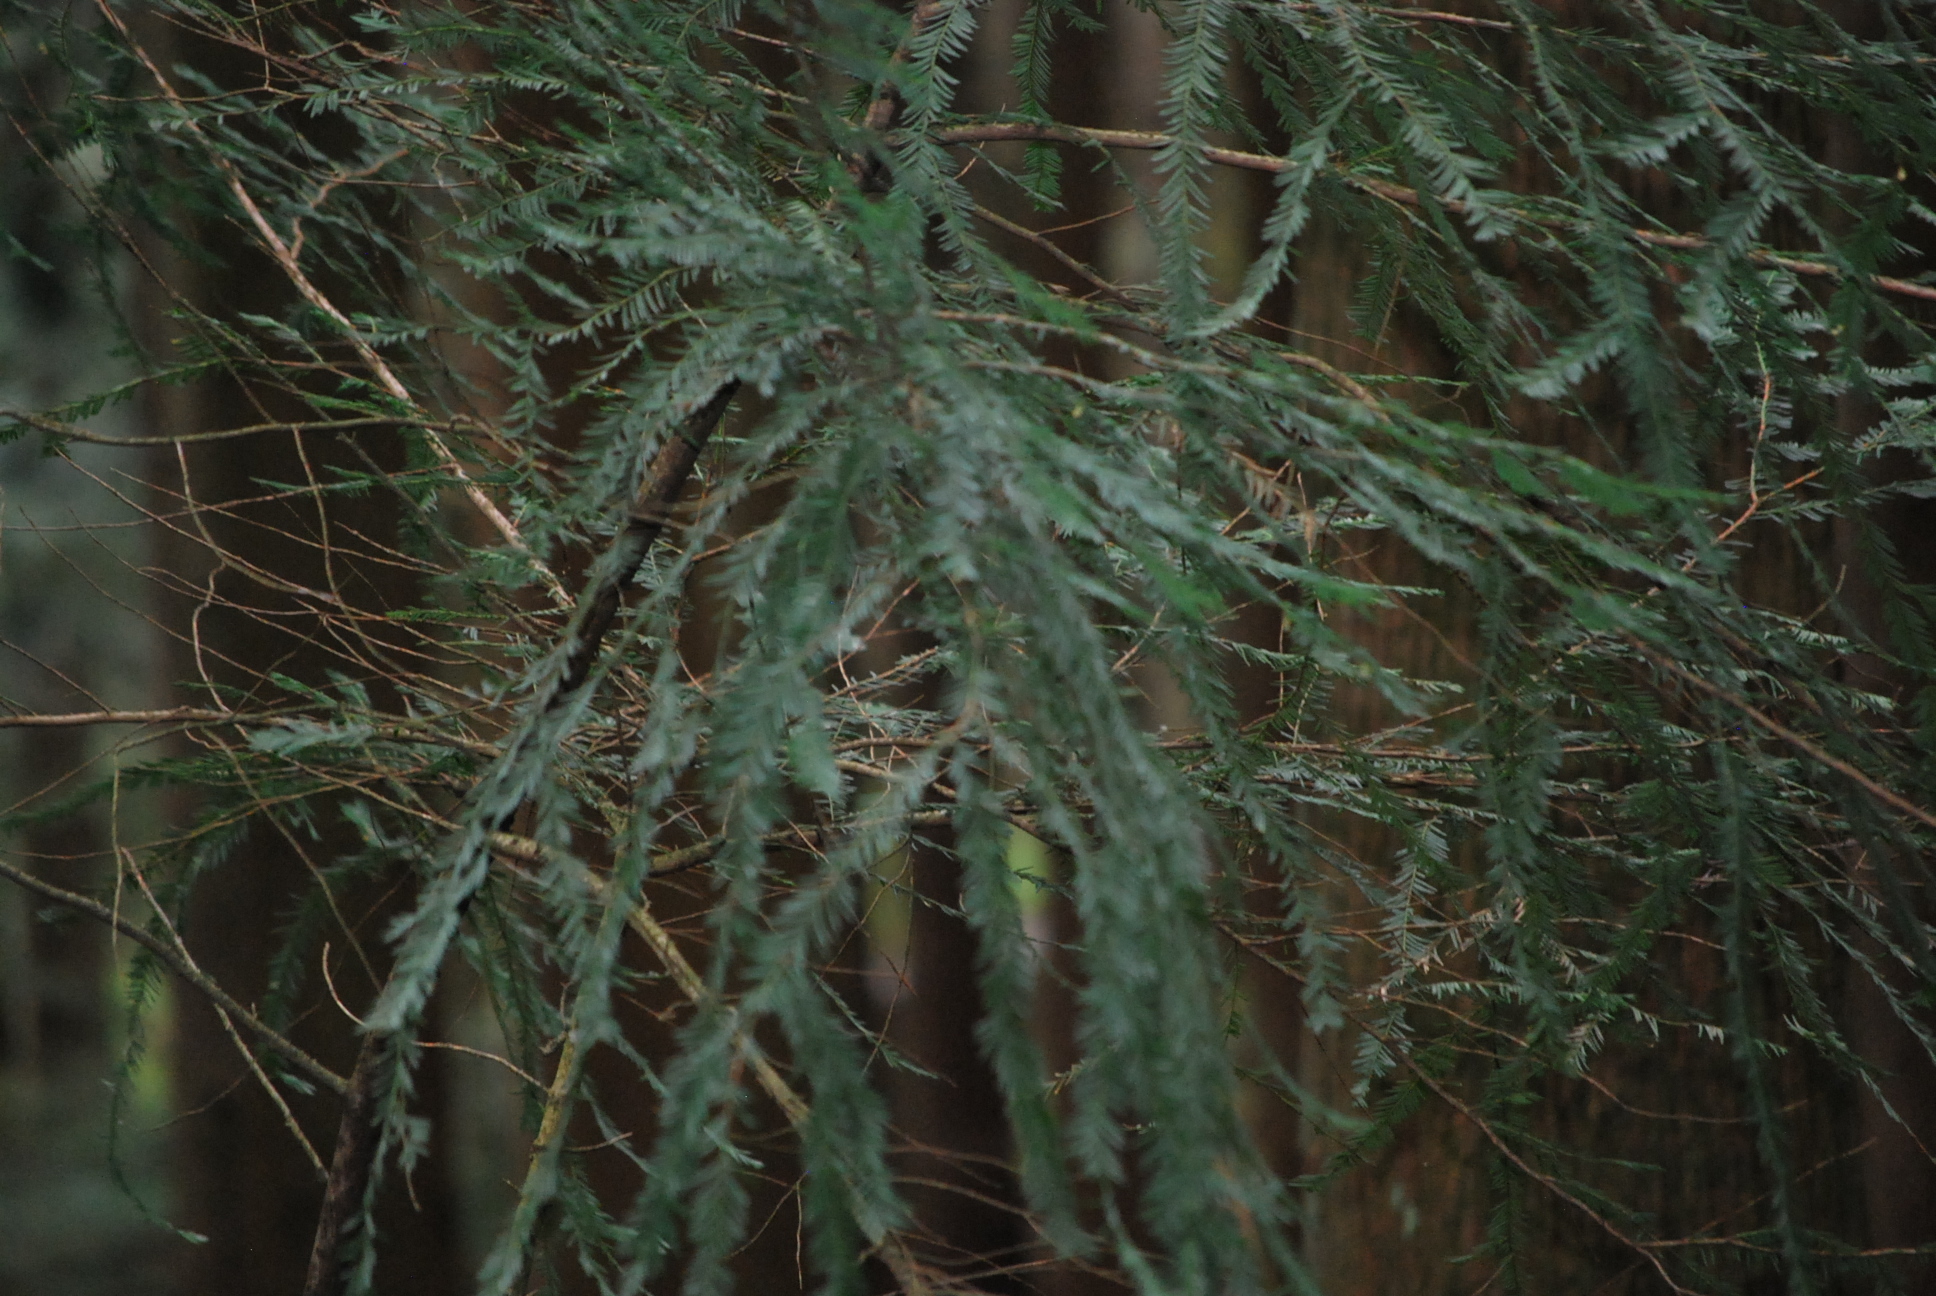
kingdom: Plantae
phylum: Tracheophyta
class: Pinopsida
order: Pinales
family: Taxaceae
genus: Taxus
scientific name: Taxus brevifolia
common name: Pacific yew
